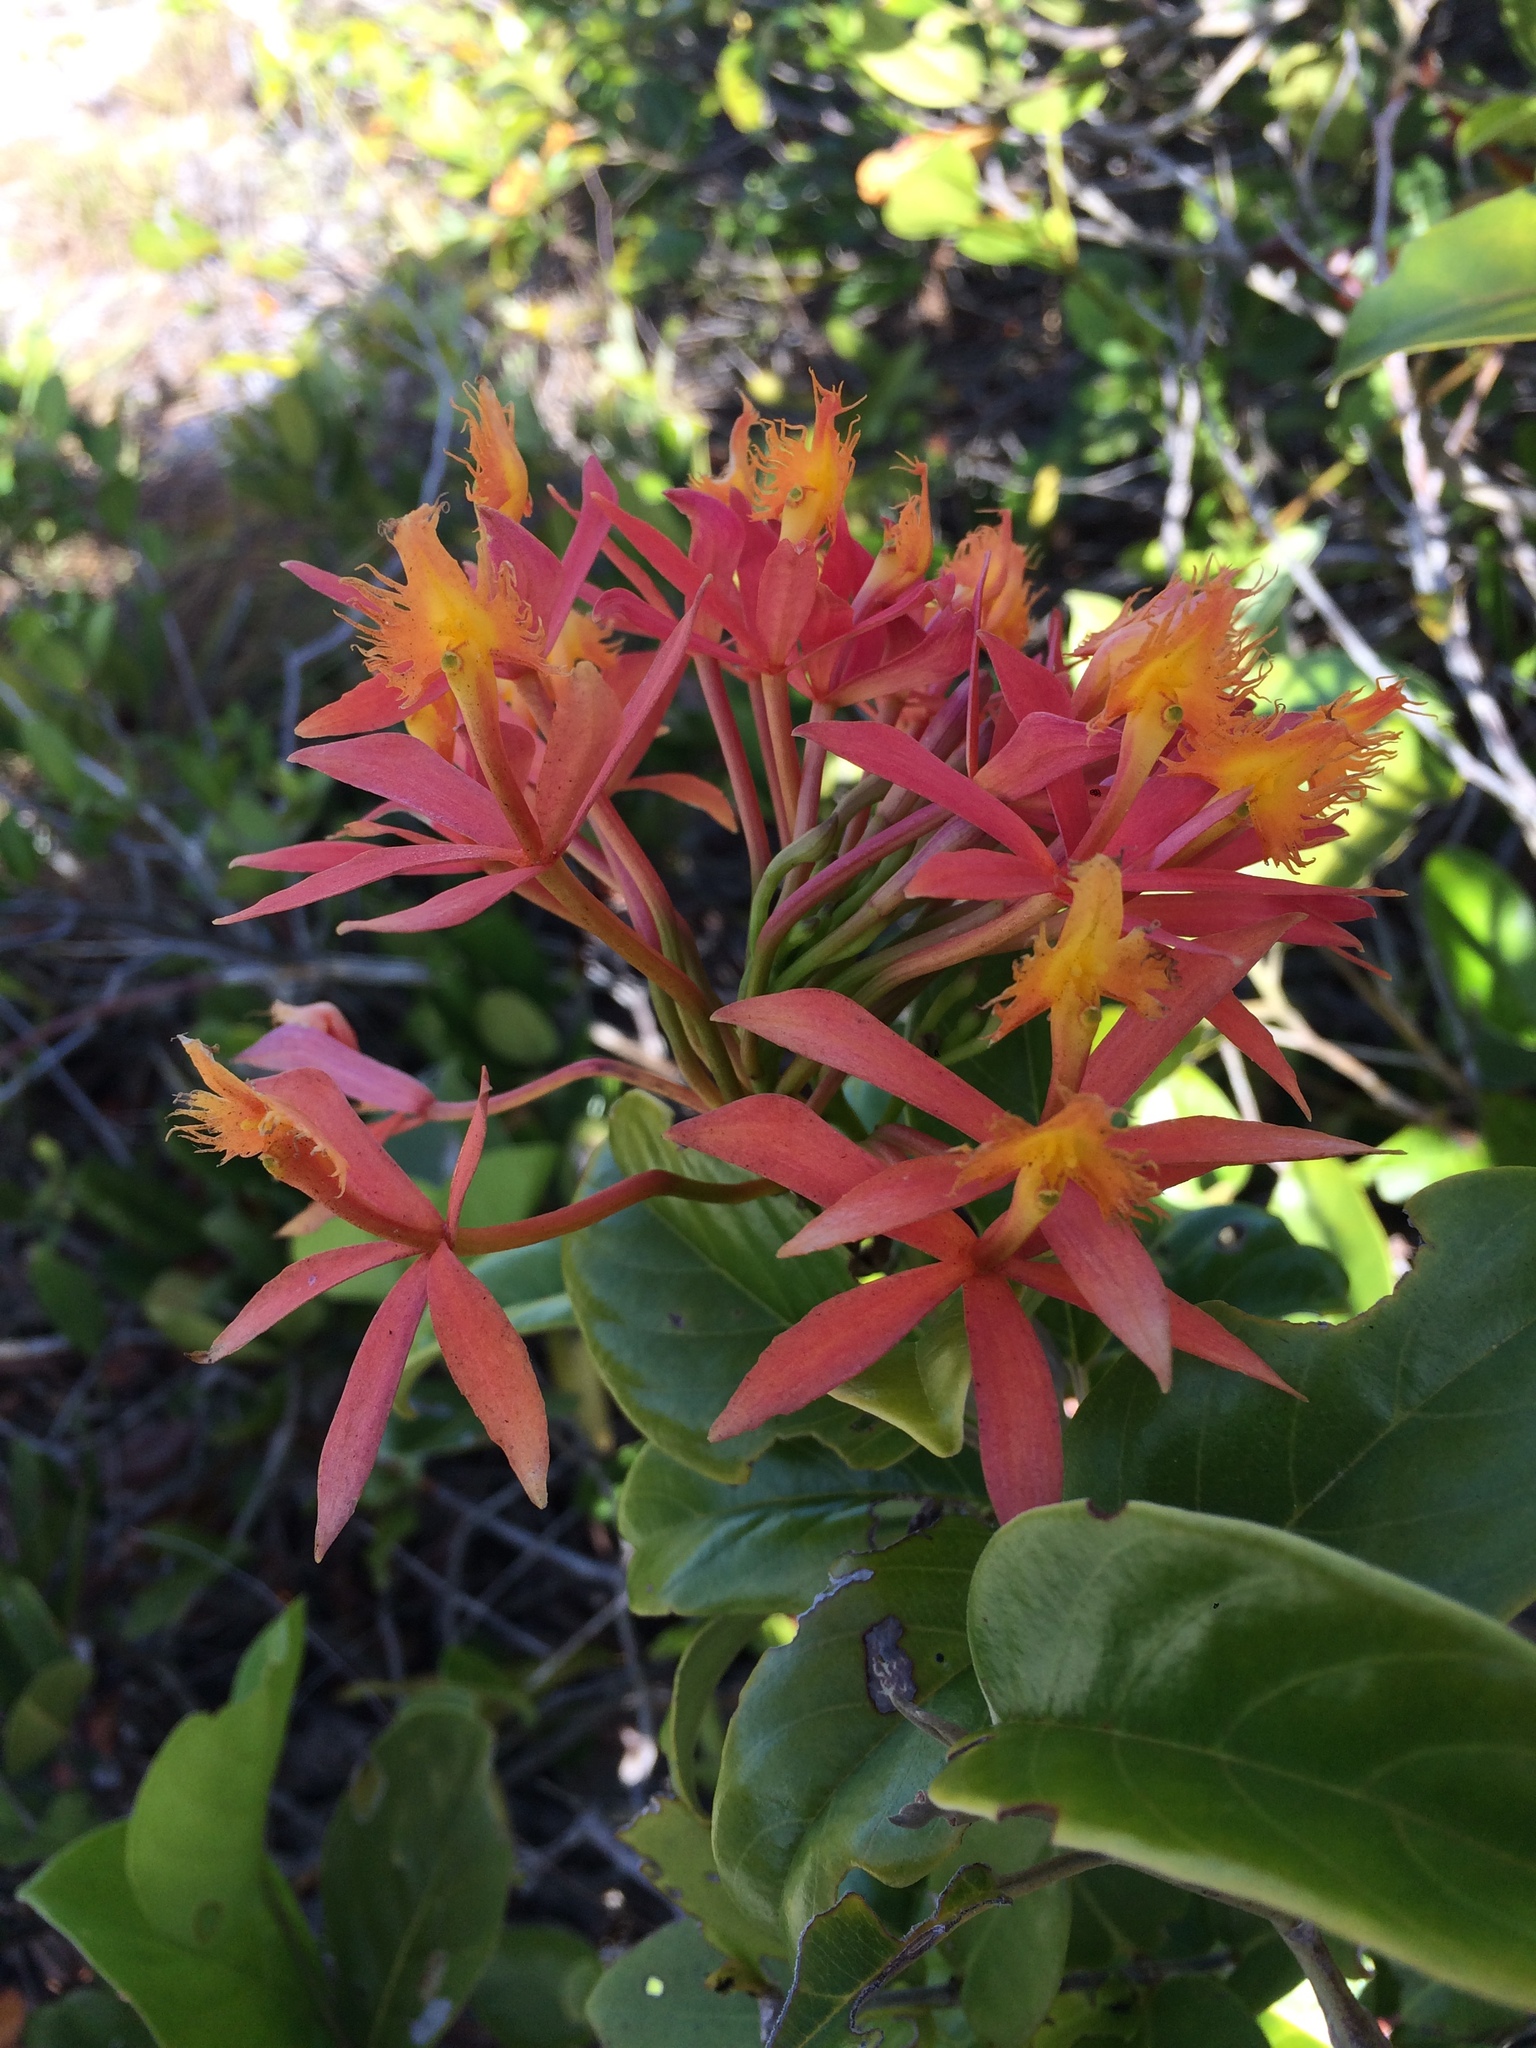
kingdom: Plantae
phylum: Tracheophyta
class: Liliopsida
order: Asparagales
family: Orchidaceae
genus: Epidendrum
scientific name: Epidendrum cinnabarinum
